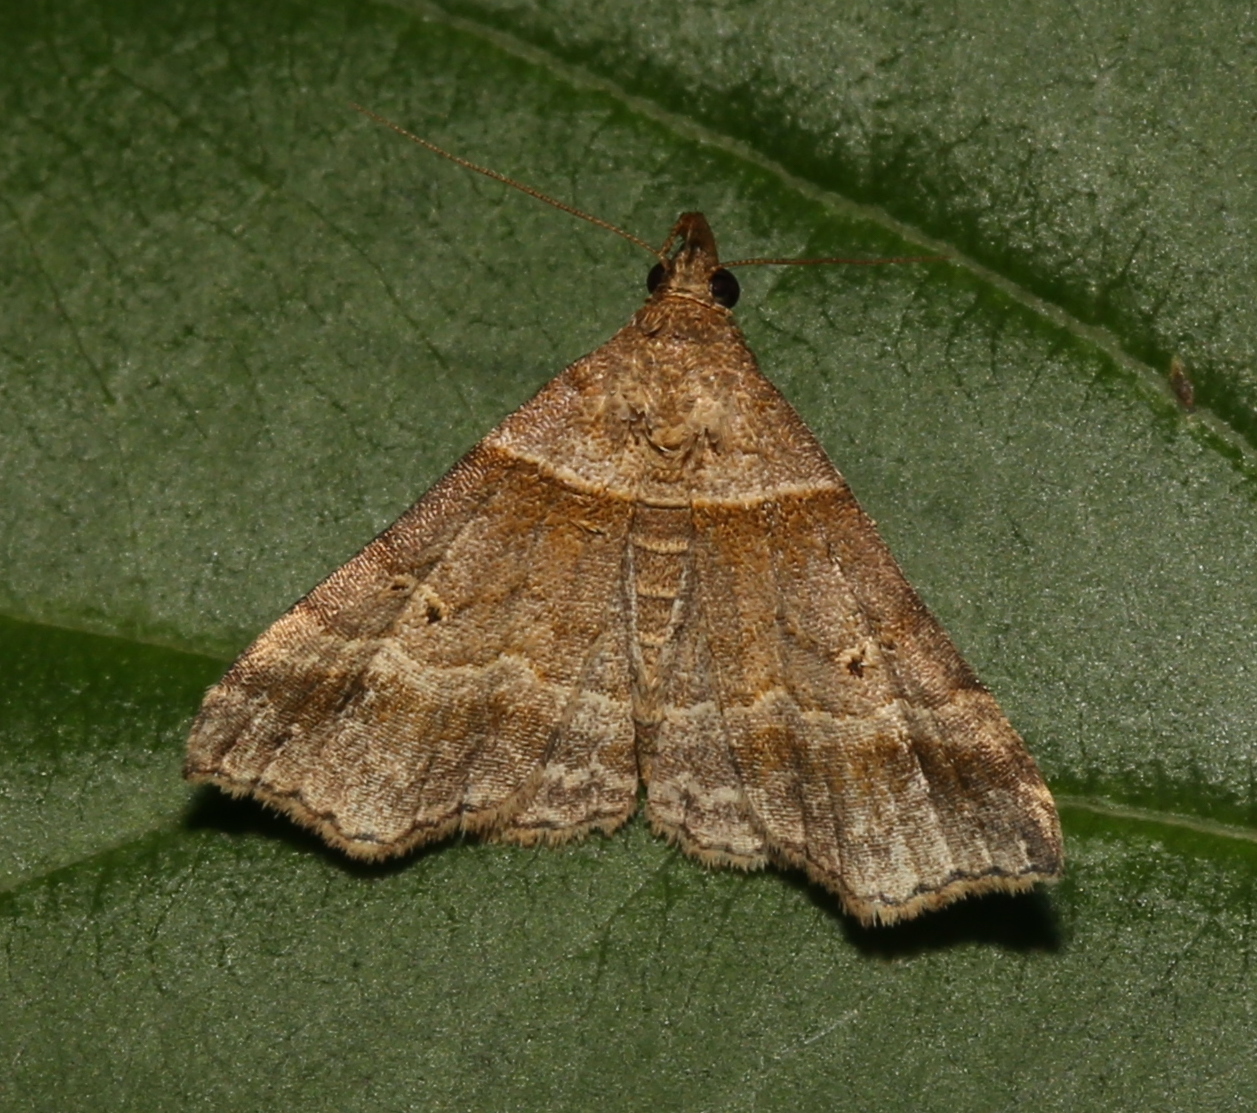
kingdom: Animalia
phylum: Arthropoda
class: Insecta
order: Lepidoptera
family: Erebidae
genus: Phaeolita
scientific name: Phaeolita pyramusalis
